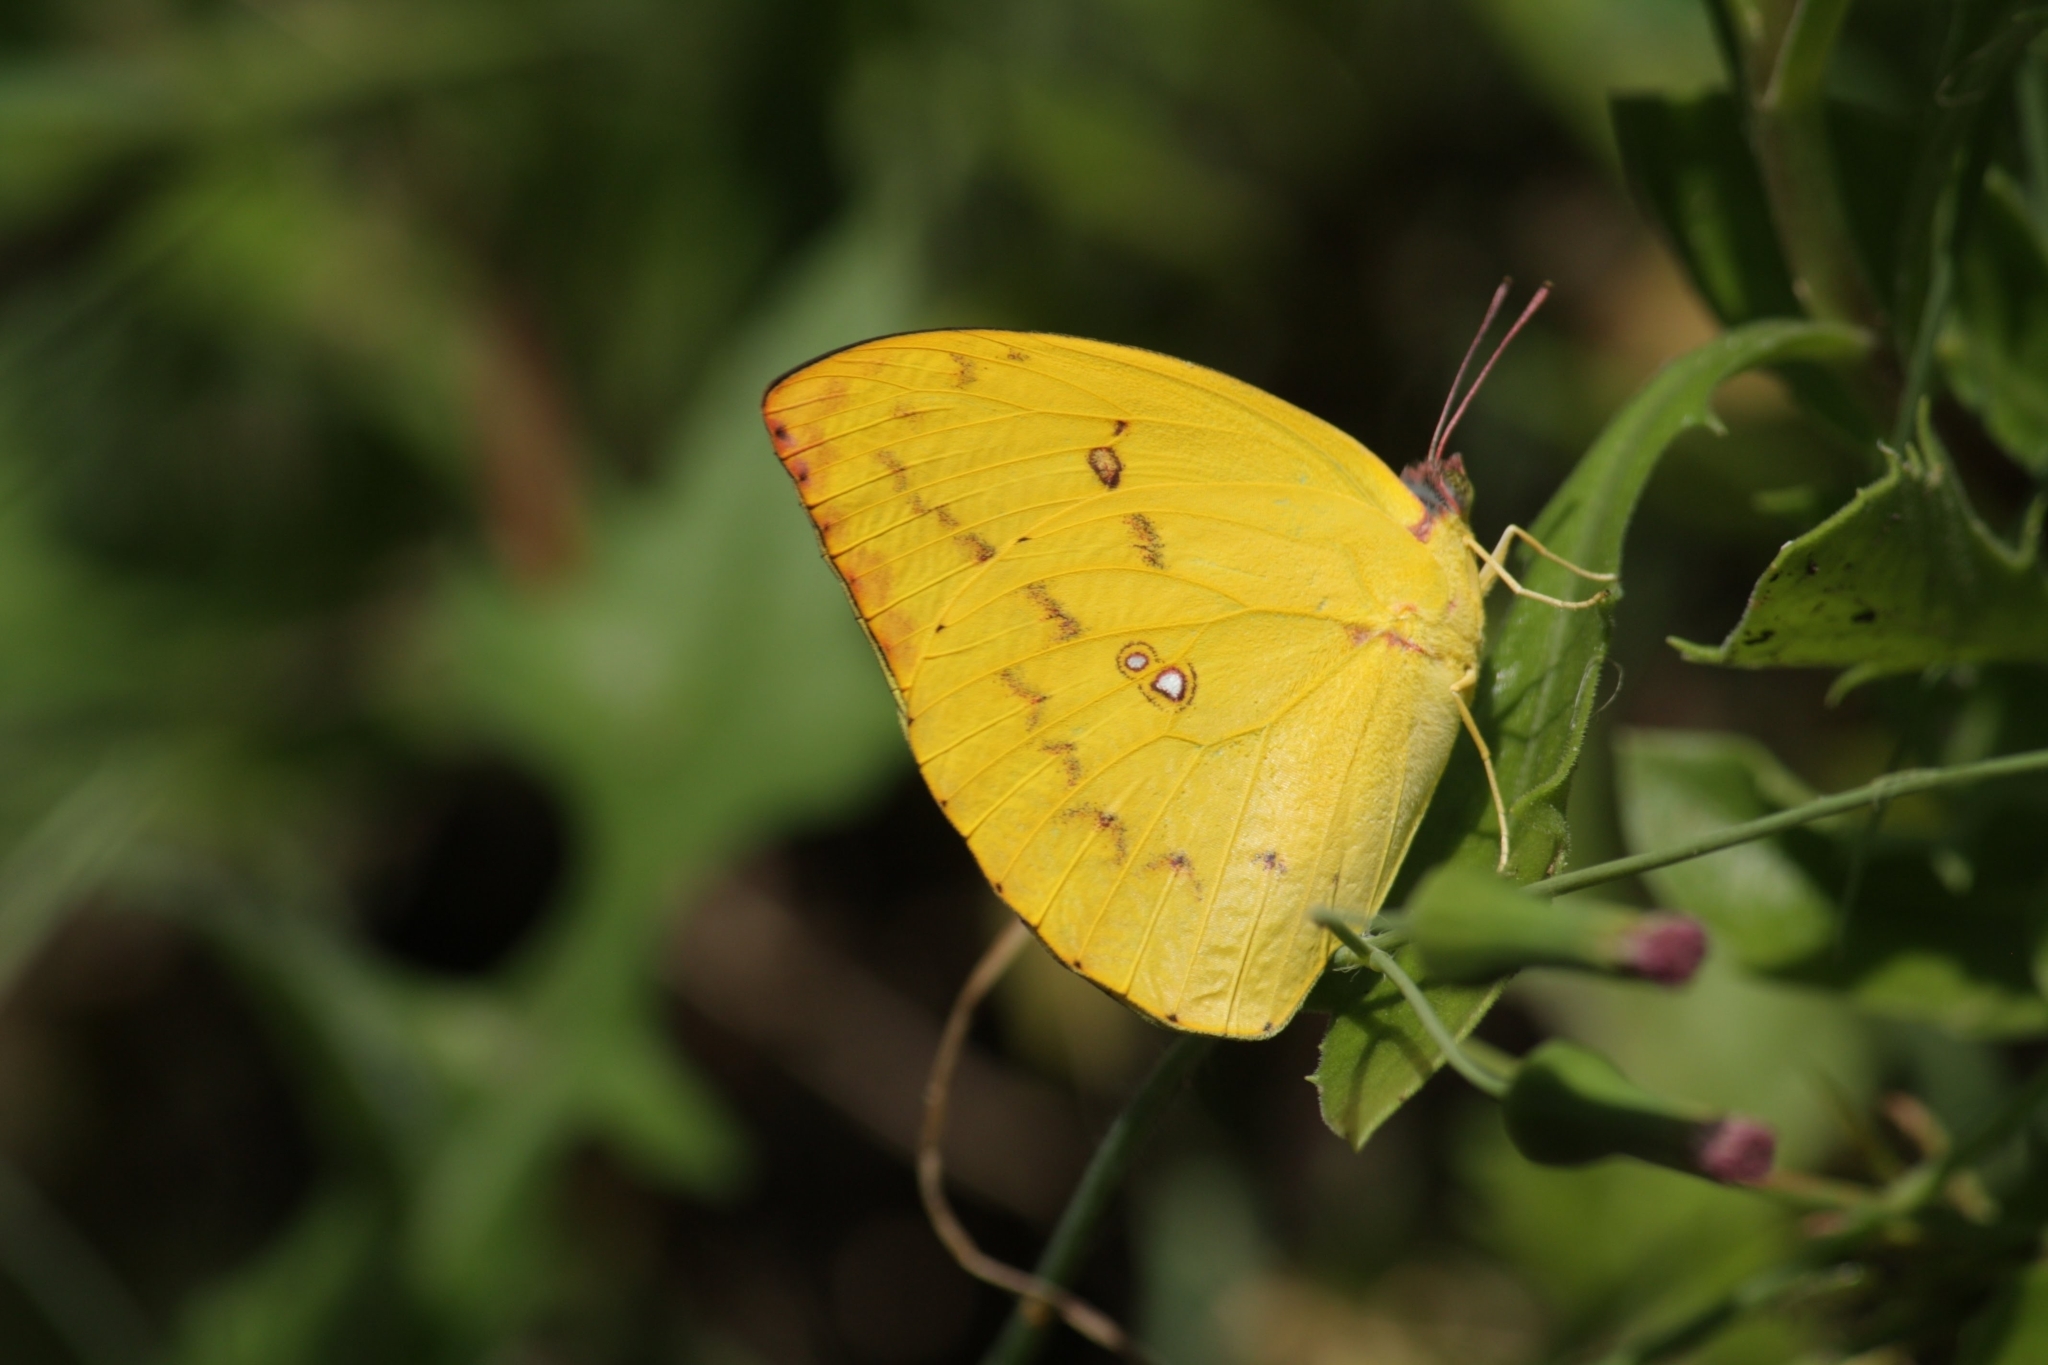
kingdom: Animalia
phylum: Arthropoda
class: Insecta
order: Lepidoptera
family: Pieridae
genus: Catopsilia
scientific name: Catopsilia pomona
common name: Common emigrant
